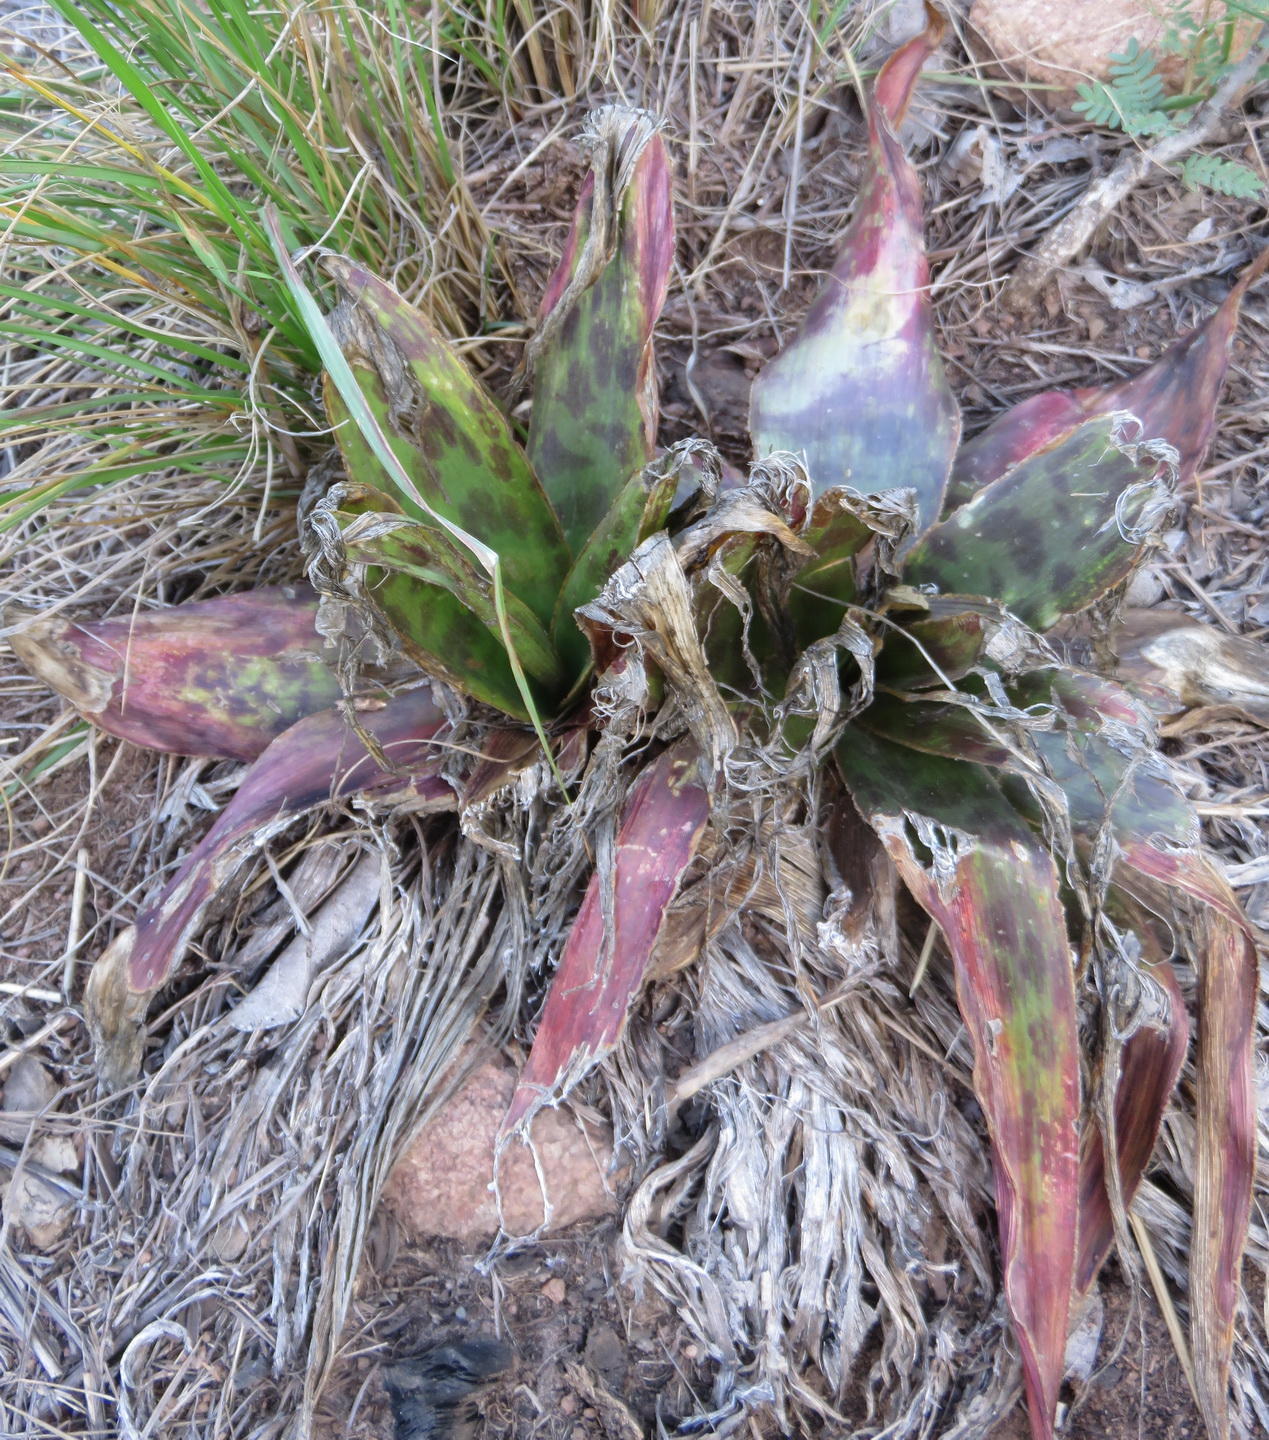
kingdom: Plantae
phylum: Tracheophyta
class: Liliopsida
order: Asparagales
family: Asparagaceae
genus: Ledebouria
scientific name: Ledebouria marginata
